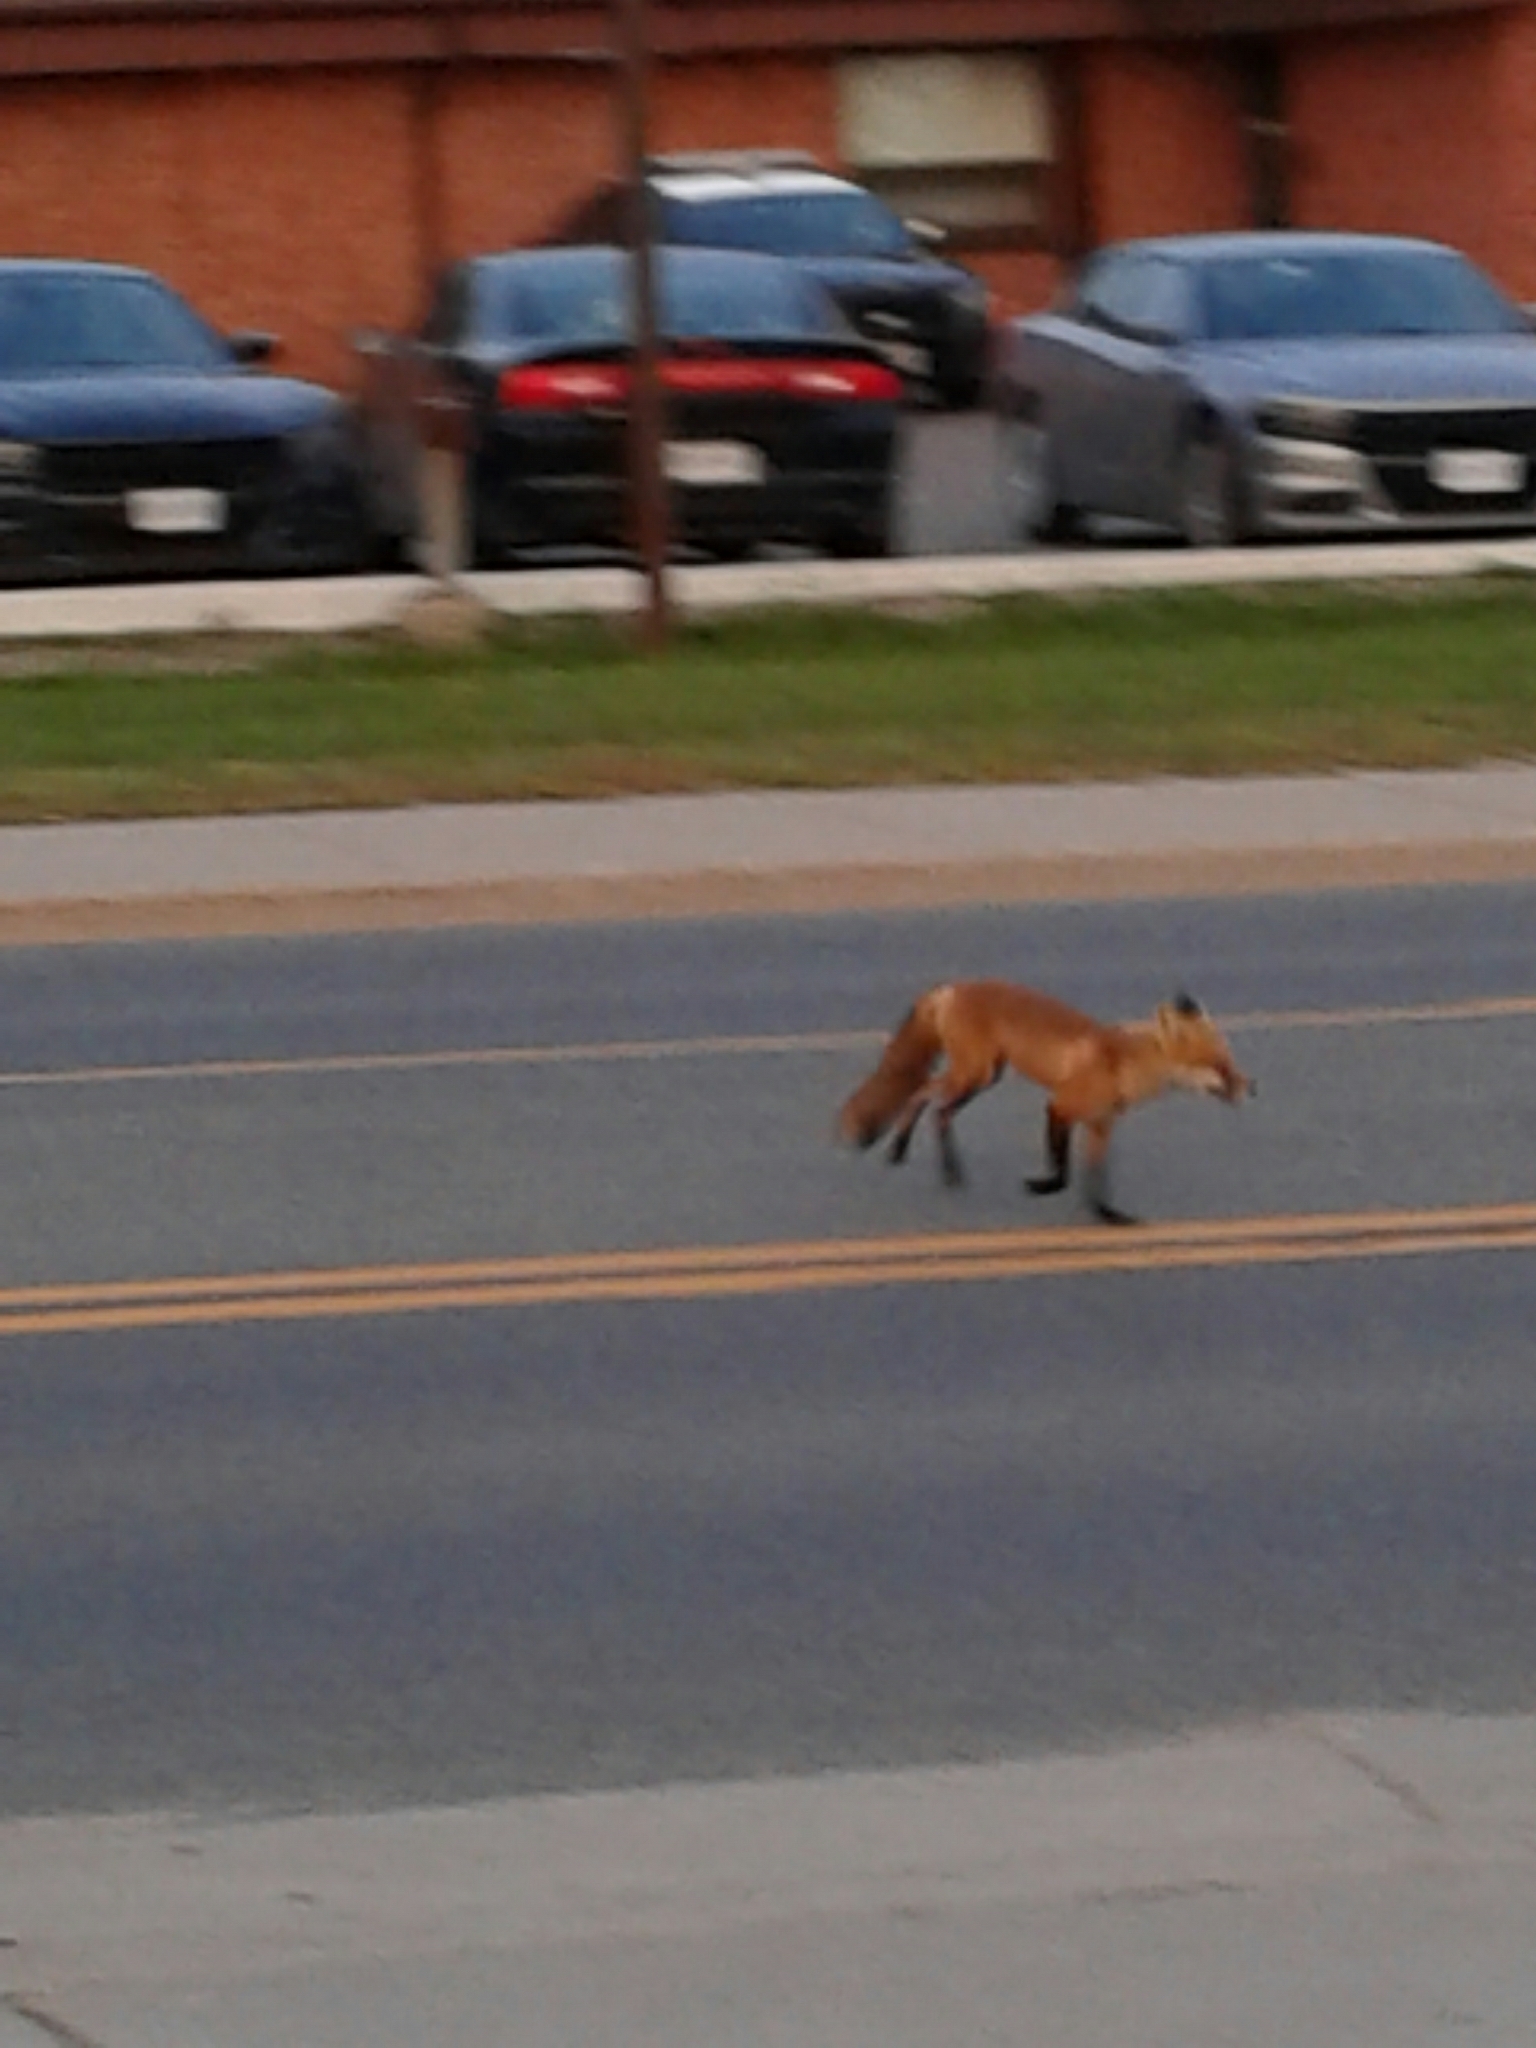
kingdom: Animalia
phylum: Chordata
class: Mammalia
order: Carnivora
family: Canidae
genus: Vulpes
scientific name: Vulpes vulpes
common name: Red fox
